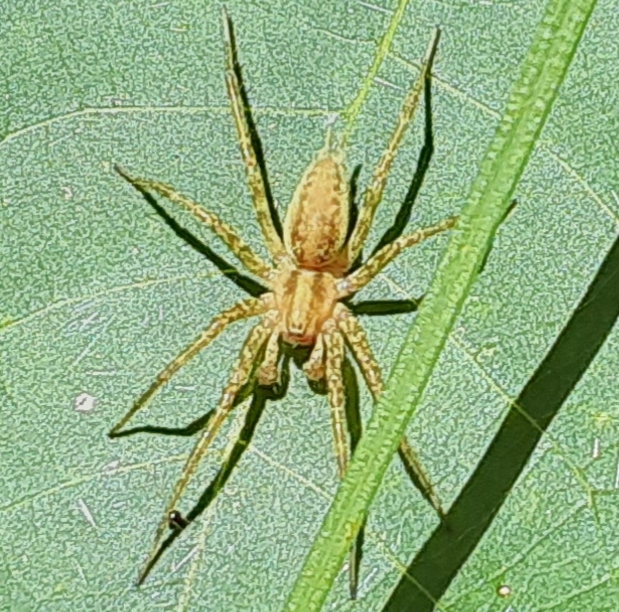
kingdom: Animalia
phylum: Arthropoda
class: Arachnida
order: Araneae
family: Agelenidae
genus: Agelenopsis
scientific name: Agelenopsis
